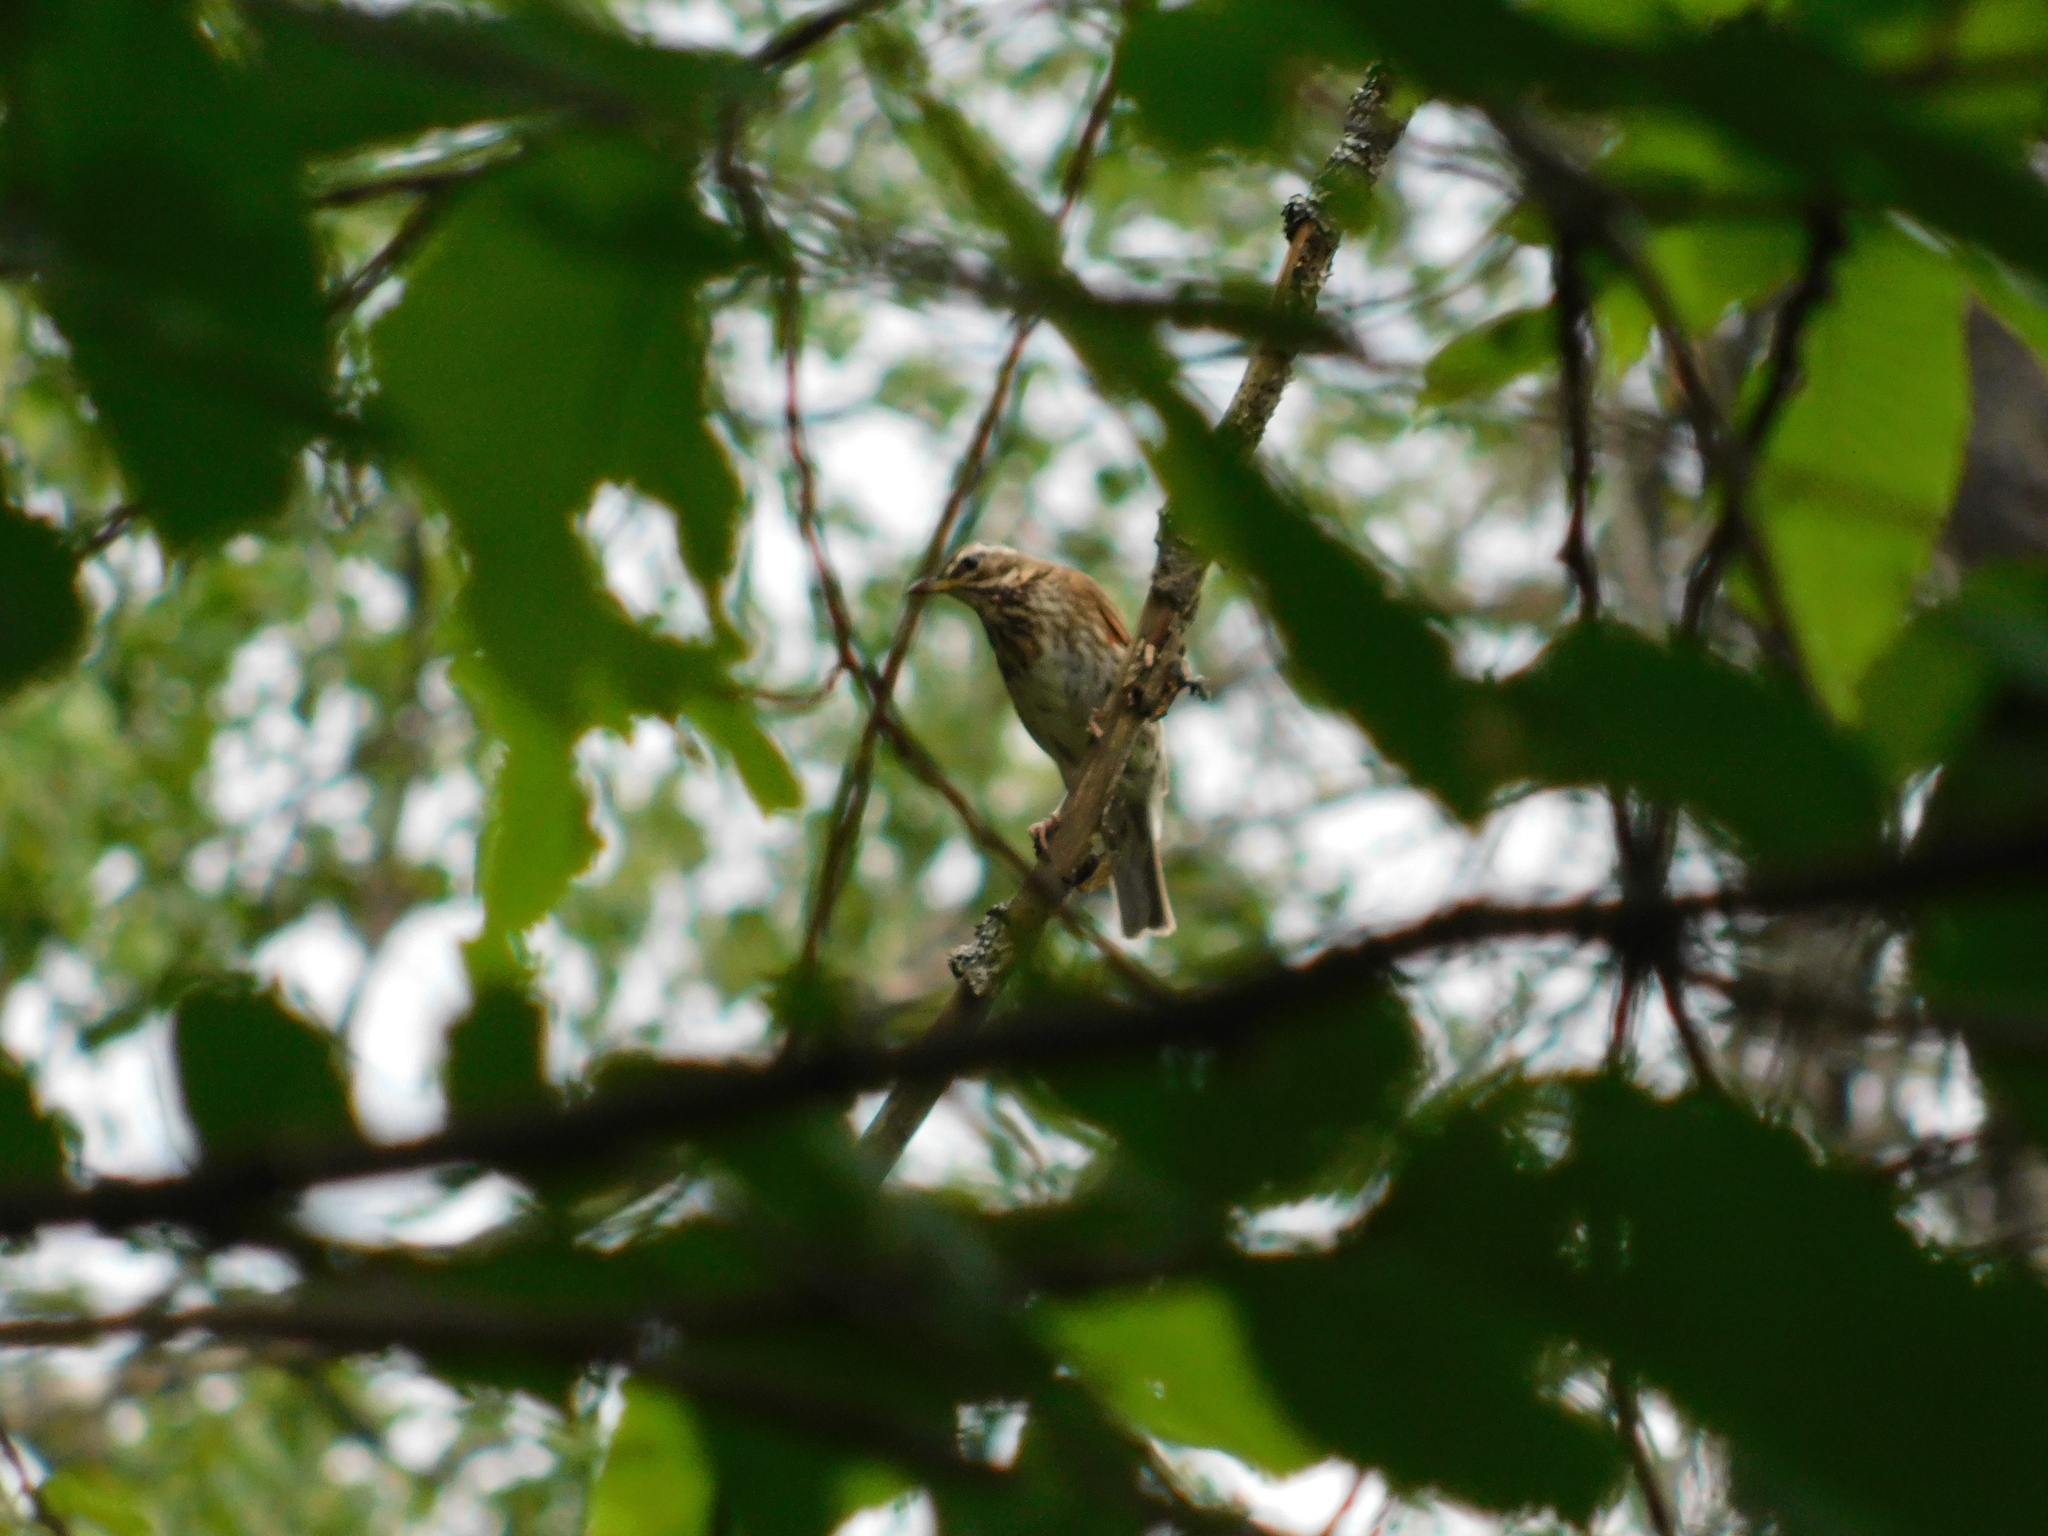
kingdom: Animalia
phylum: Chordata
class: Aves
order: Passeriformes
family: Turdidae
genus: Turdus
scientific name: Turdus iliacus
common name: Redwing
